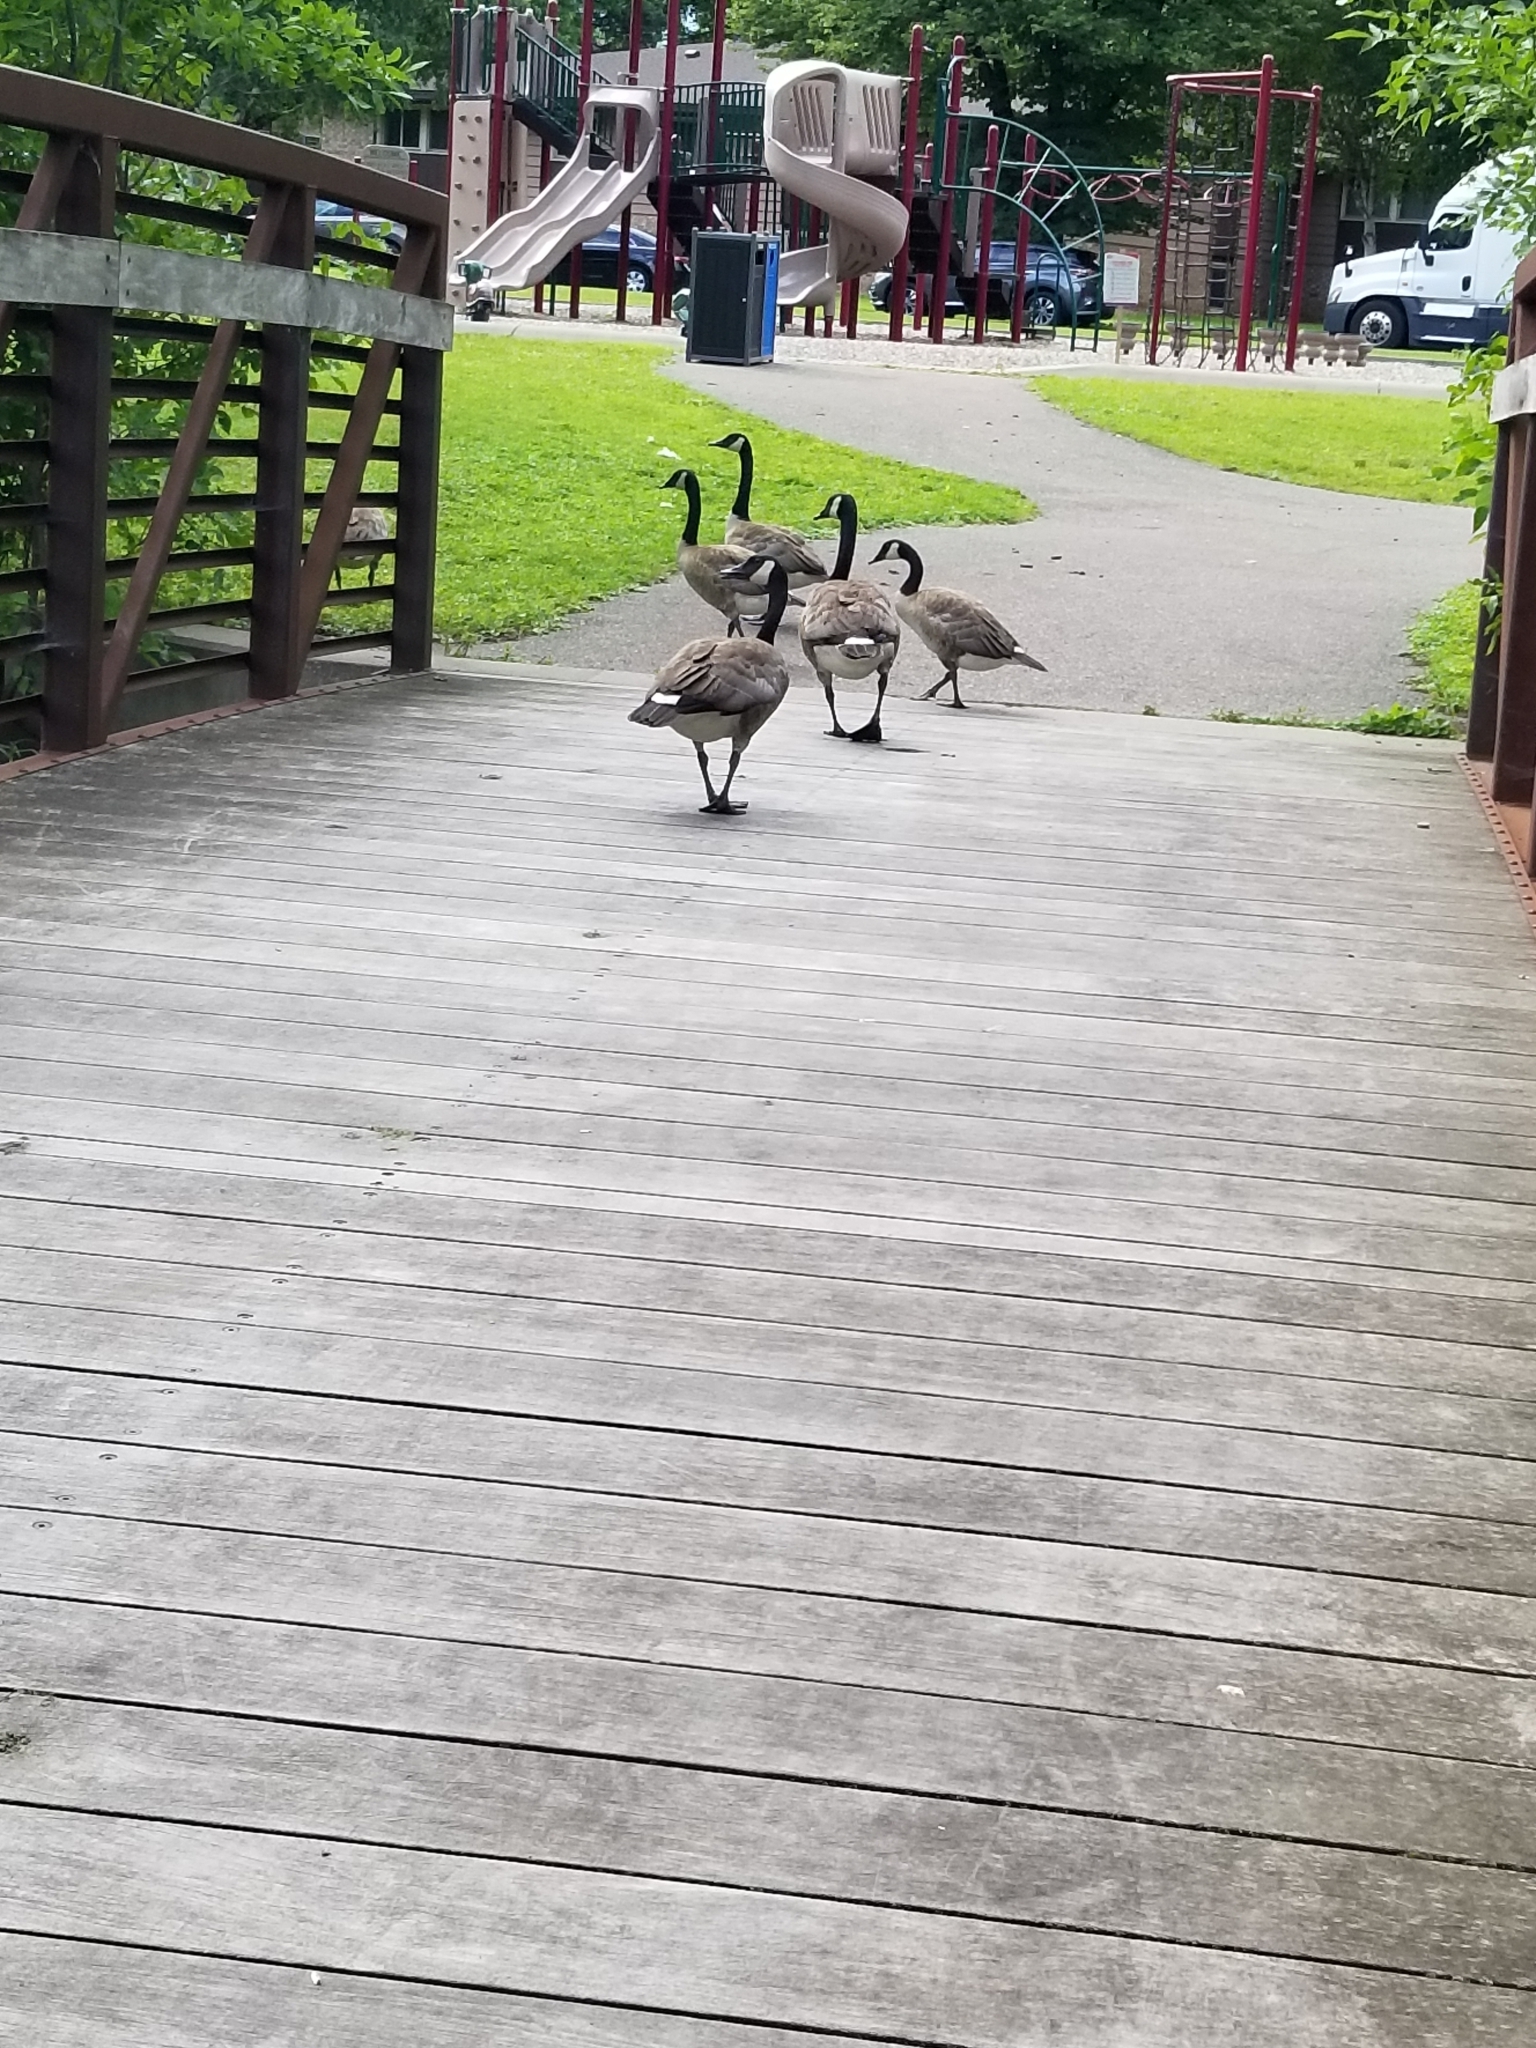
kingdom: Animalia
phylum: Chordata
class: Aves
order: Anseriformes
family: Anatidae
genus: Branta
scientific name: Branta canadensis
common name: Canada goose
